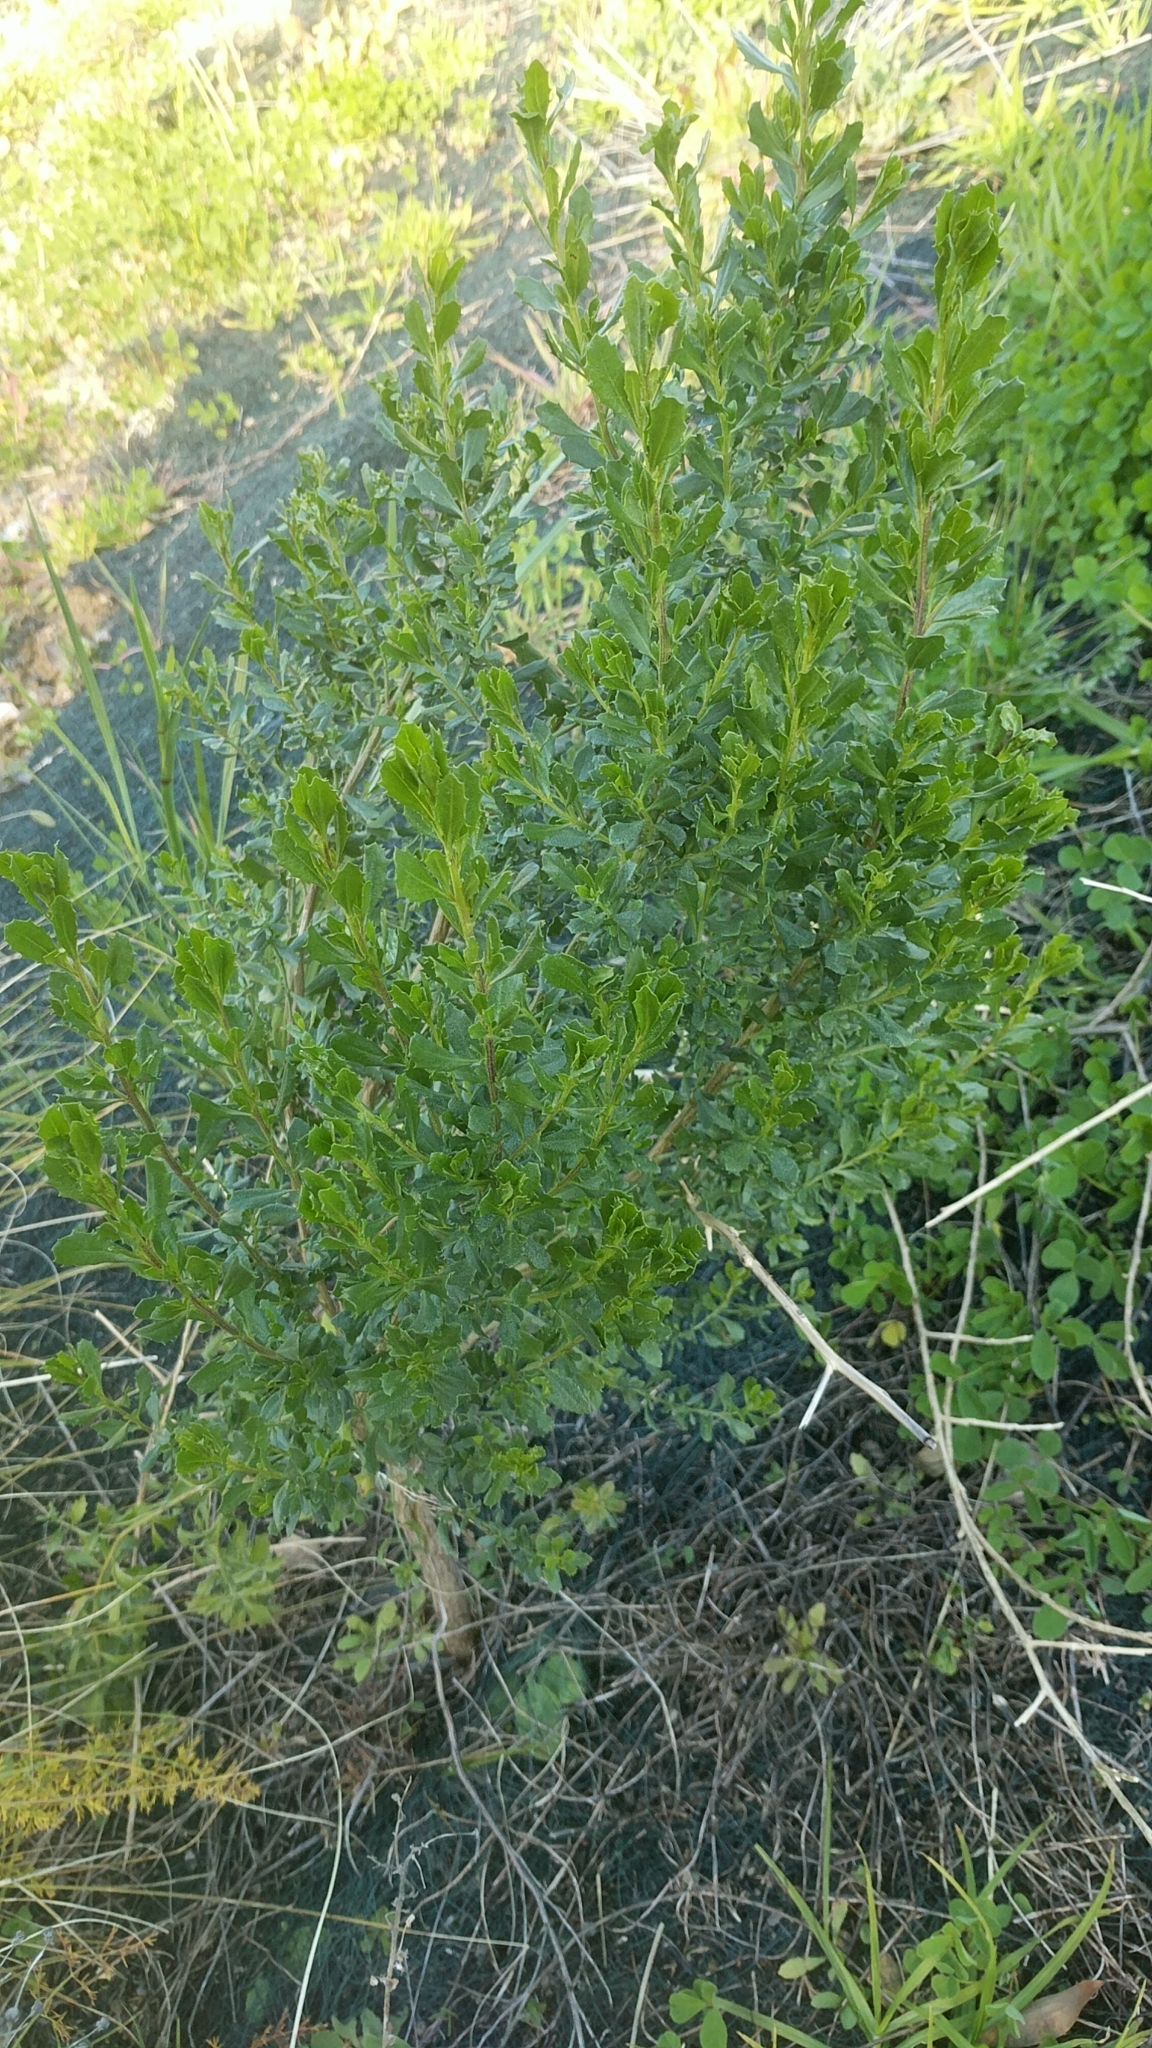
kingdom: Plantae
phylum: Tracheophyta
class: Magnoliopsida
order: Asterales
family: Asteraceae
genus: Baccharis
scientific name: Baccharis pilularis
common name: Coyotebrush
